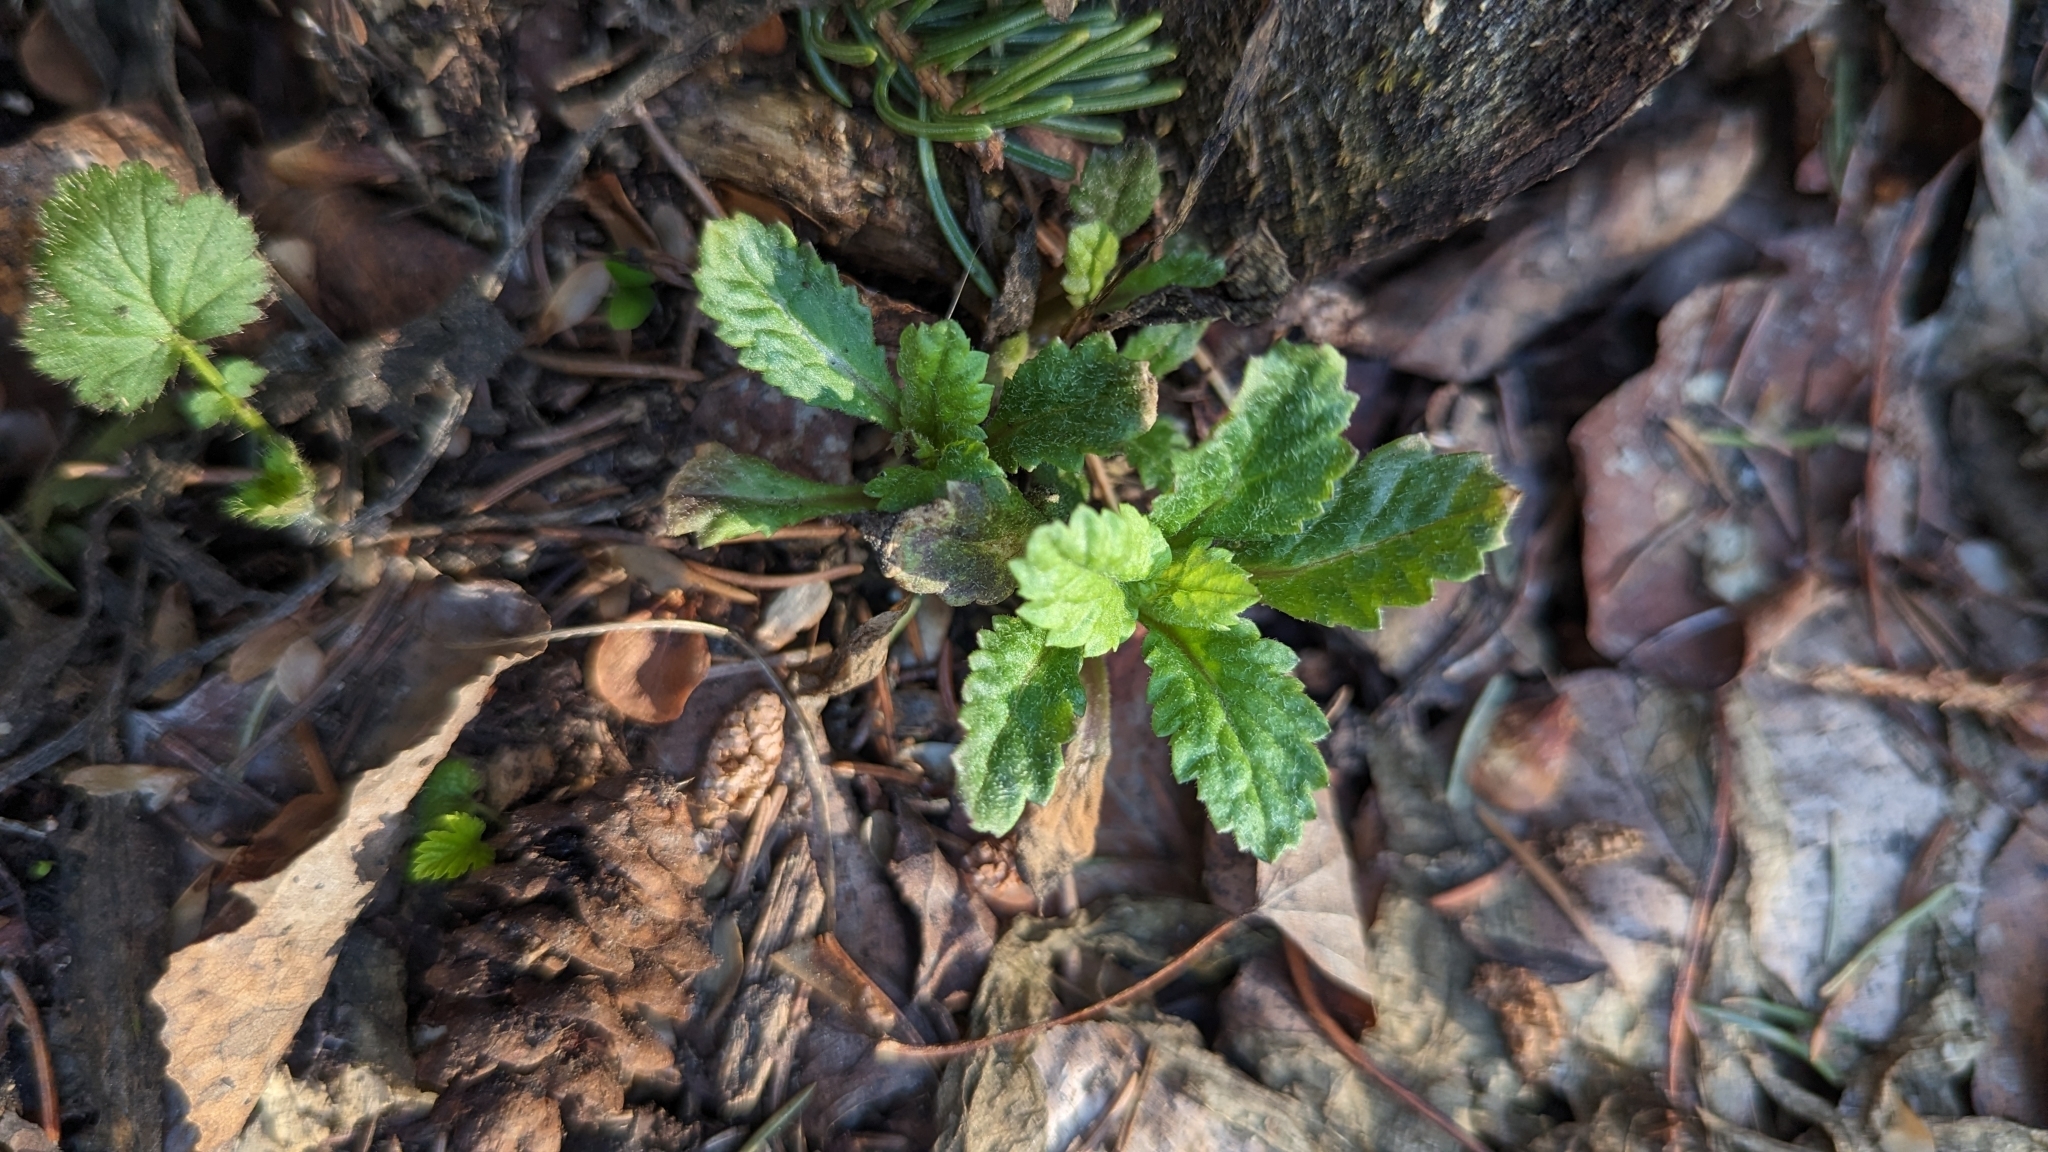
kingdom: Plantae
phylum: Tracheophyta
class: Magnoliopsida
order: Rosales
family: Rosaceae
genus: Dryas
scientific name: Dryas drummondii
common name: Drummond's dryad
